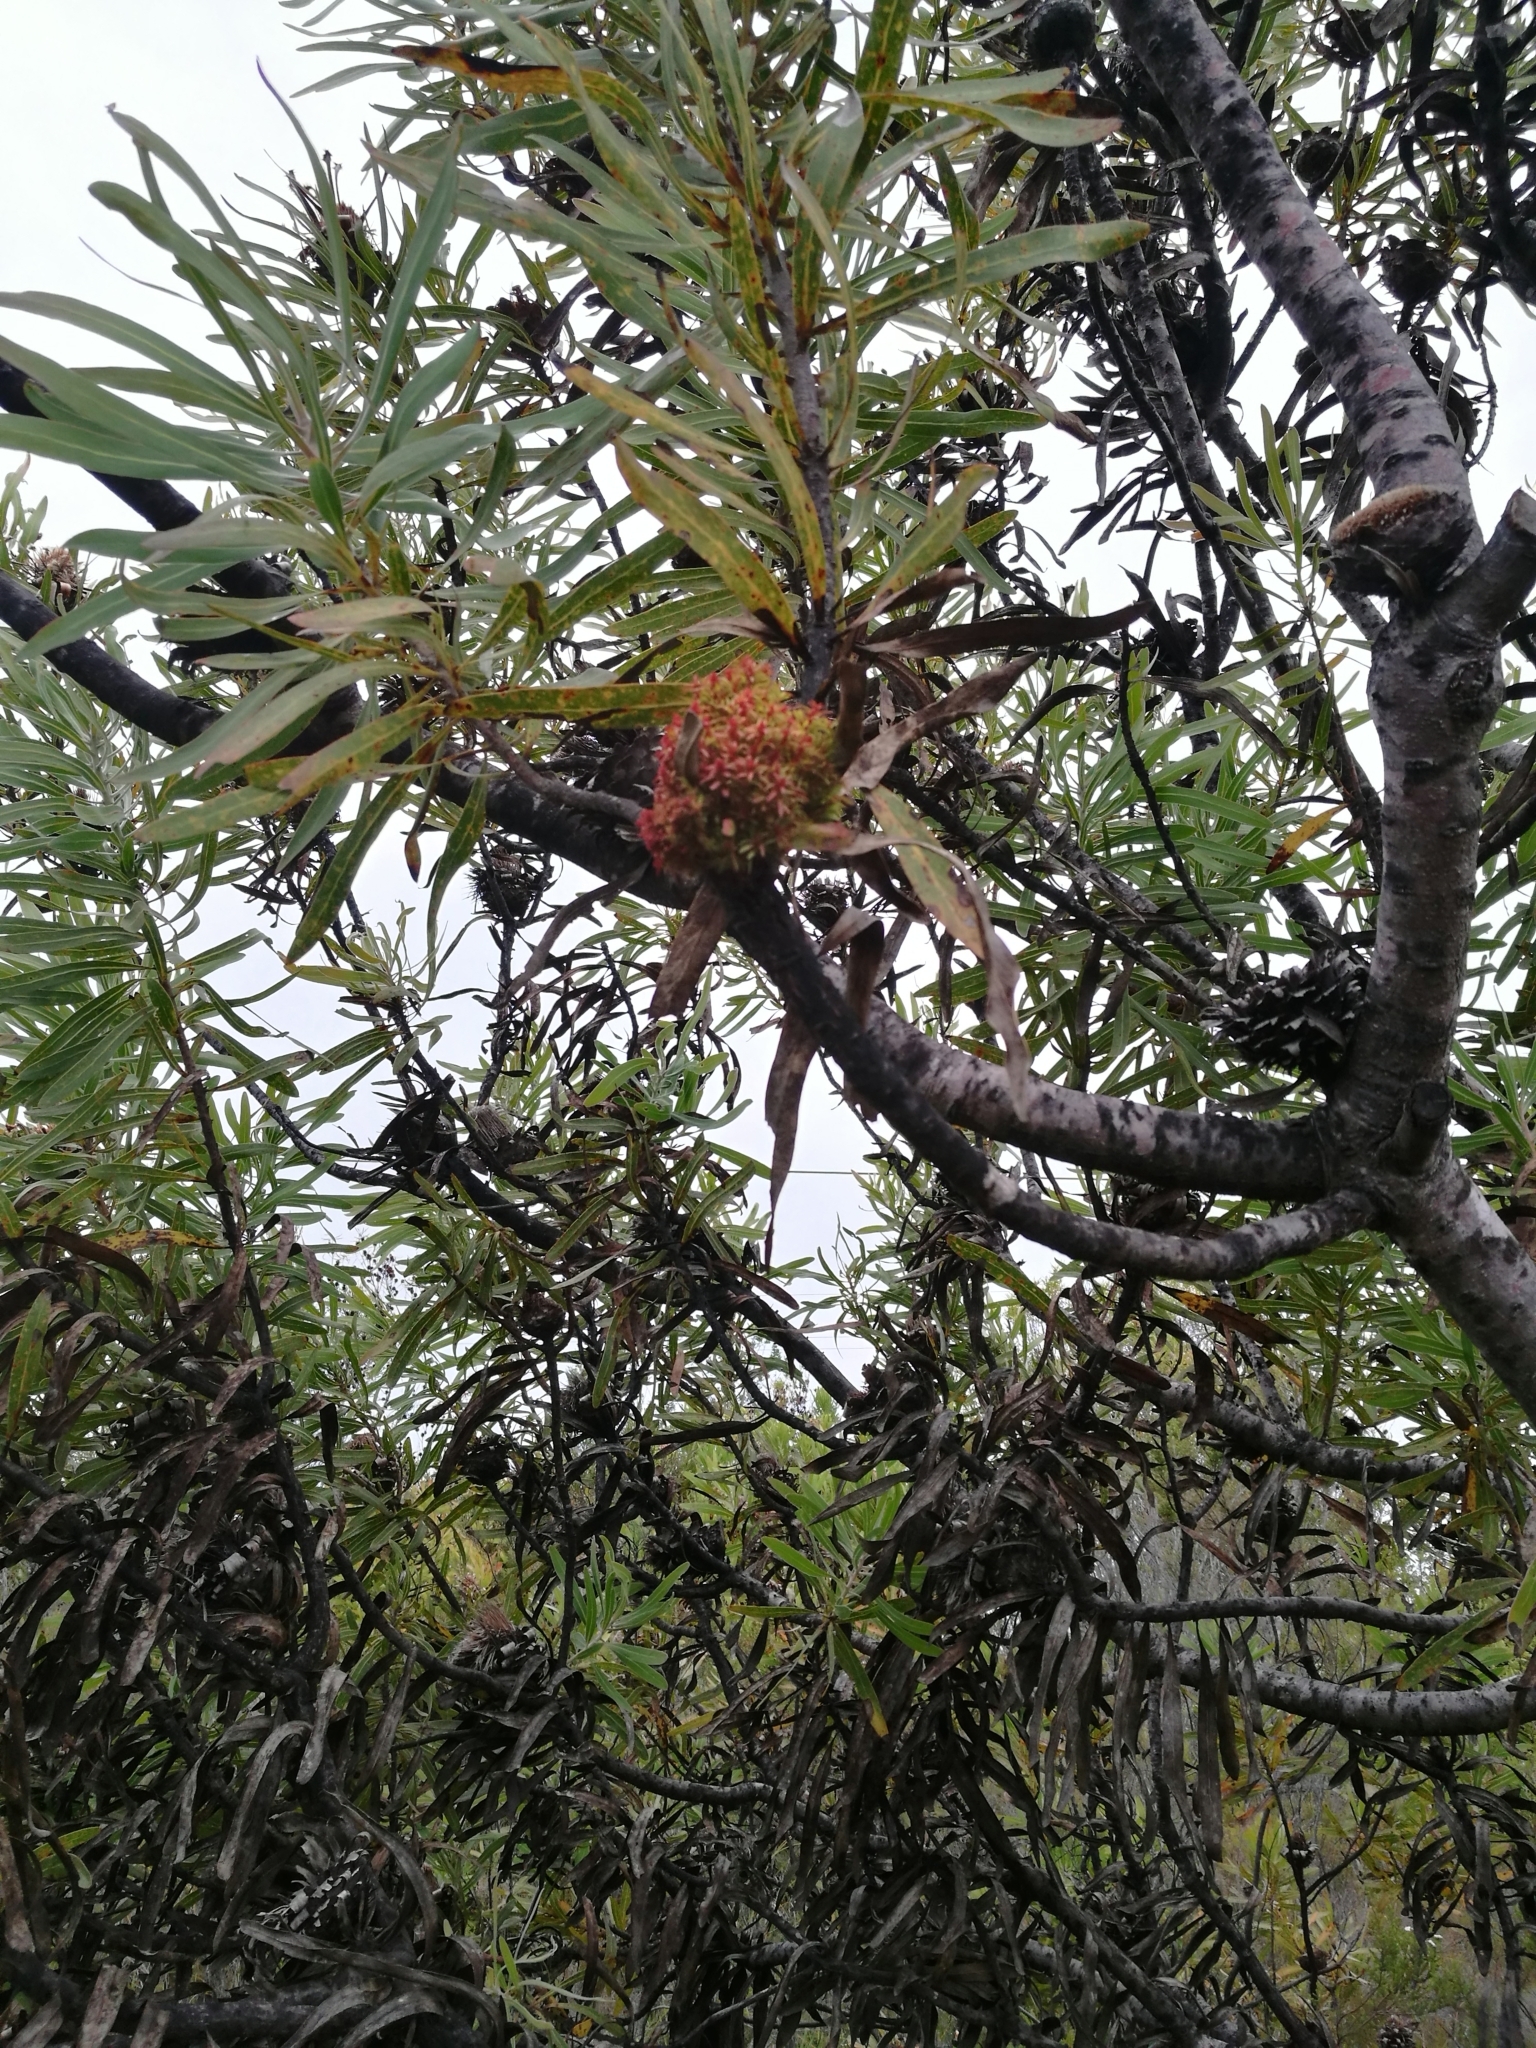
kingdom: Bacteria
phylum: Firmicutes
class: Bacilli
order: Acholeplasmatales
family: Acholeplasmataceae
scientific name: Acholeplasmataceae
